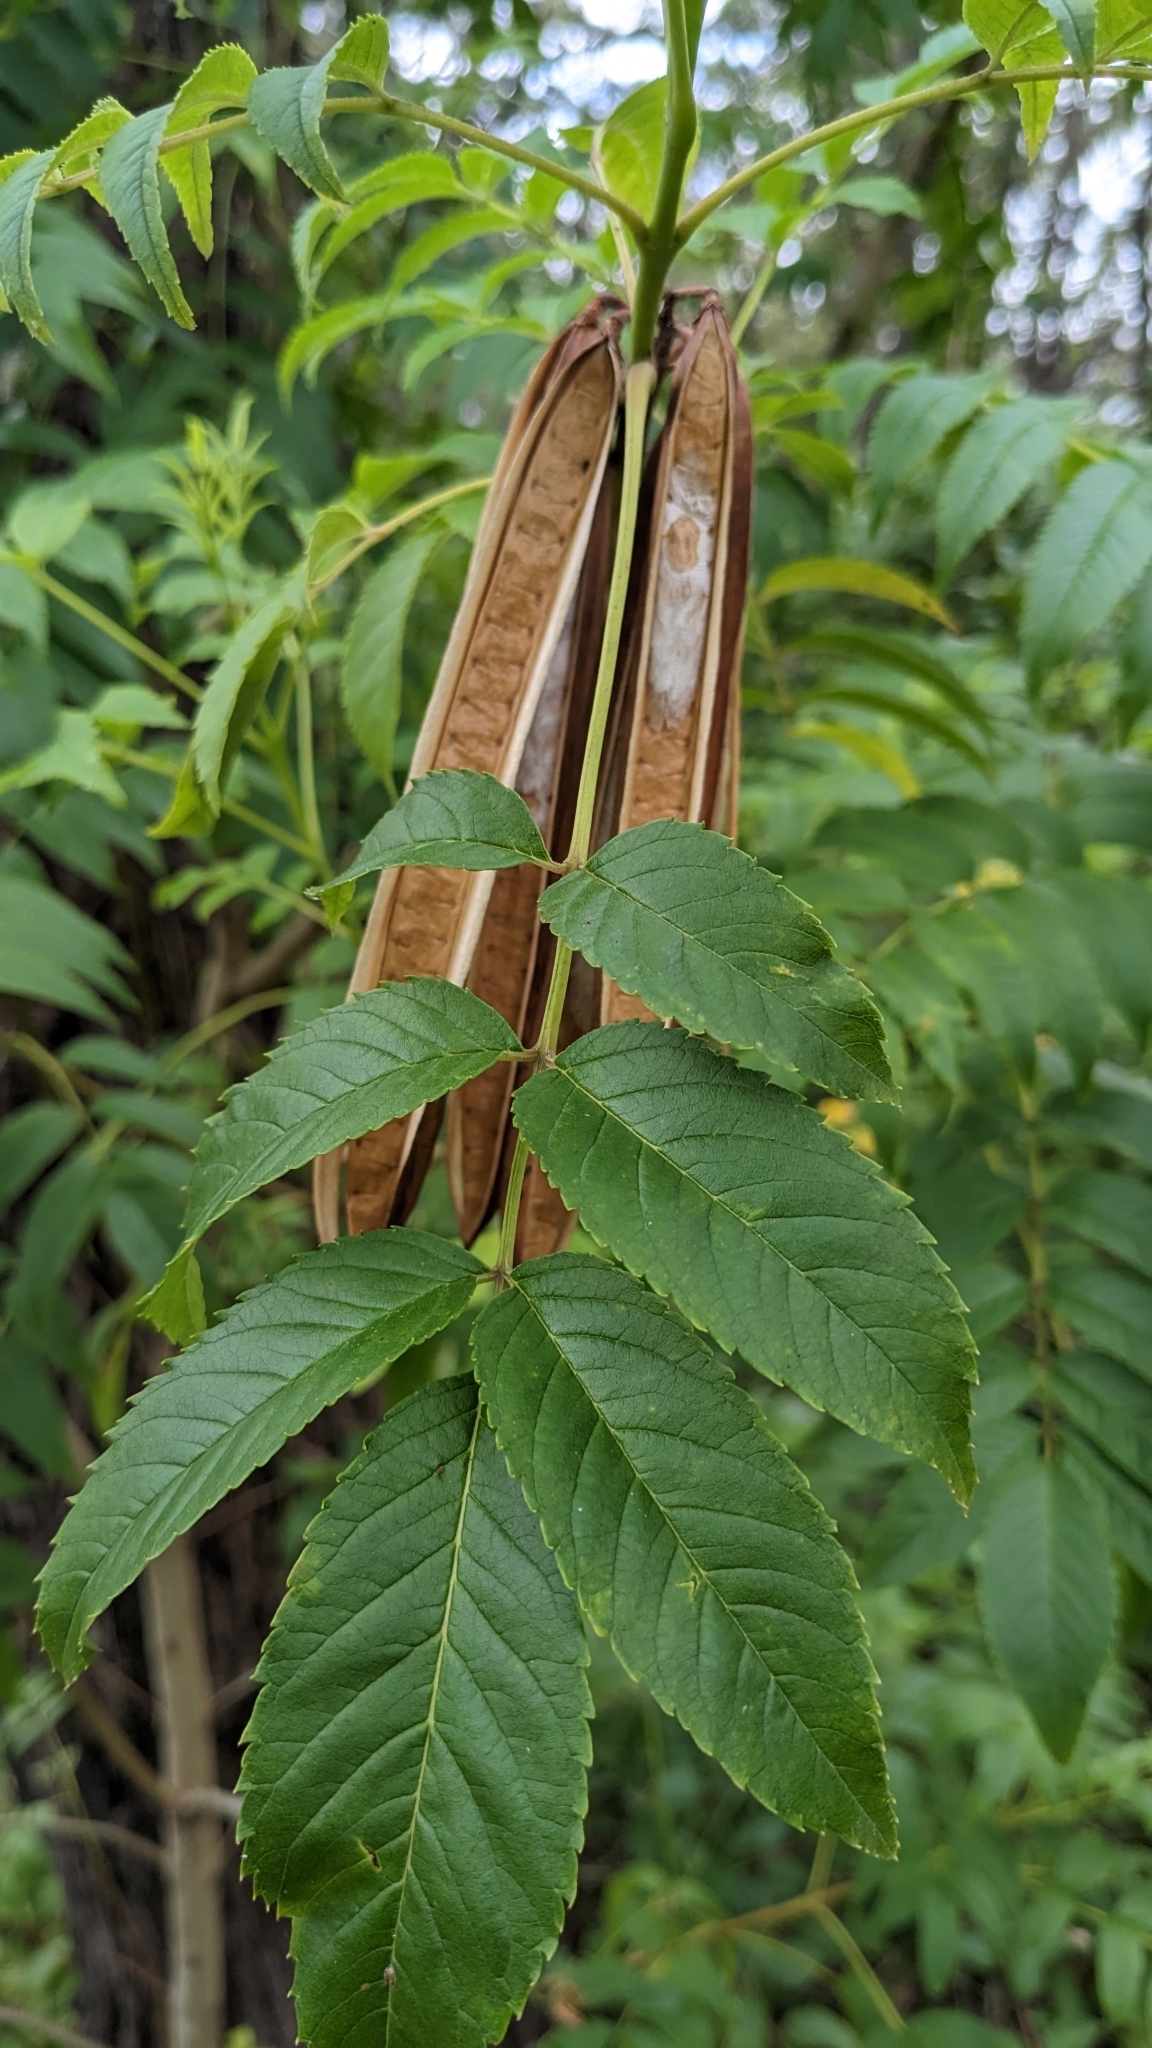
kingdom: Plantae
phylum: Tracheophyta
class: Magnoliopsida
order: Lamiales
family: Bignoniaceae
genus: Tecoma
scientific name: Tecoma stans
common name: Yellow trumpetbush
